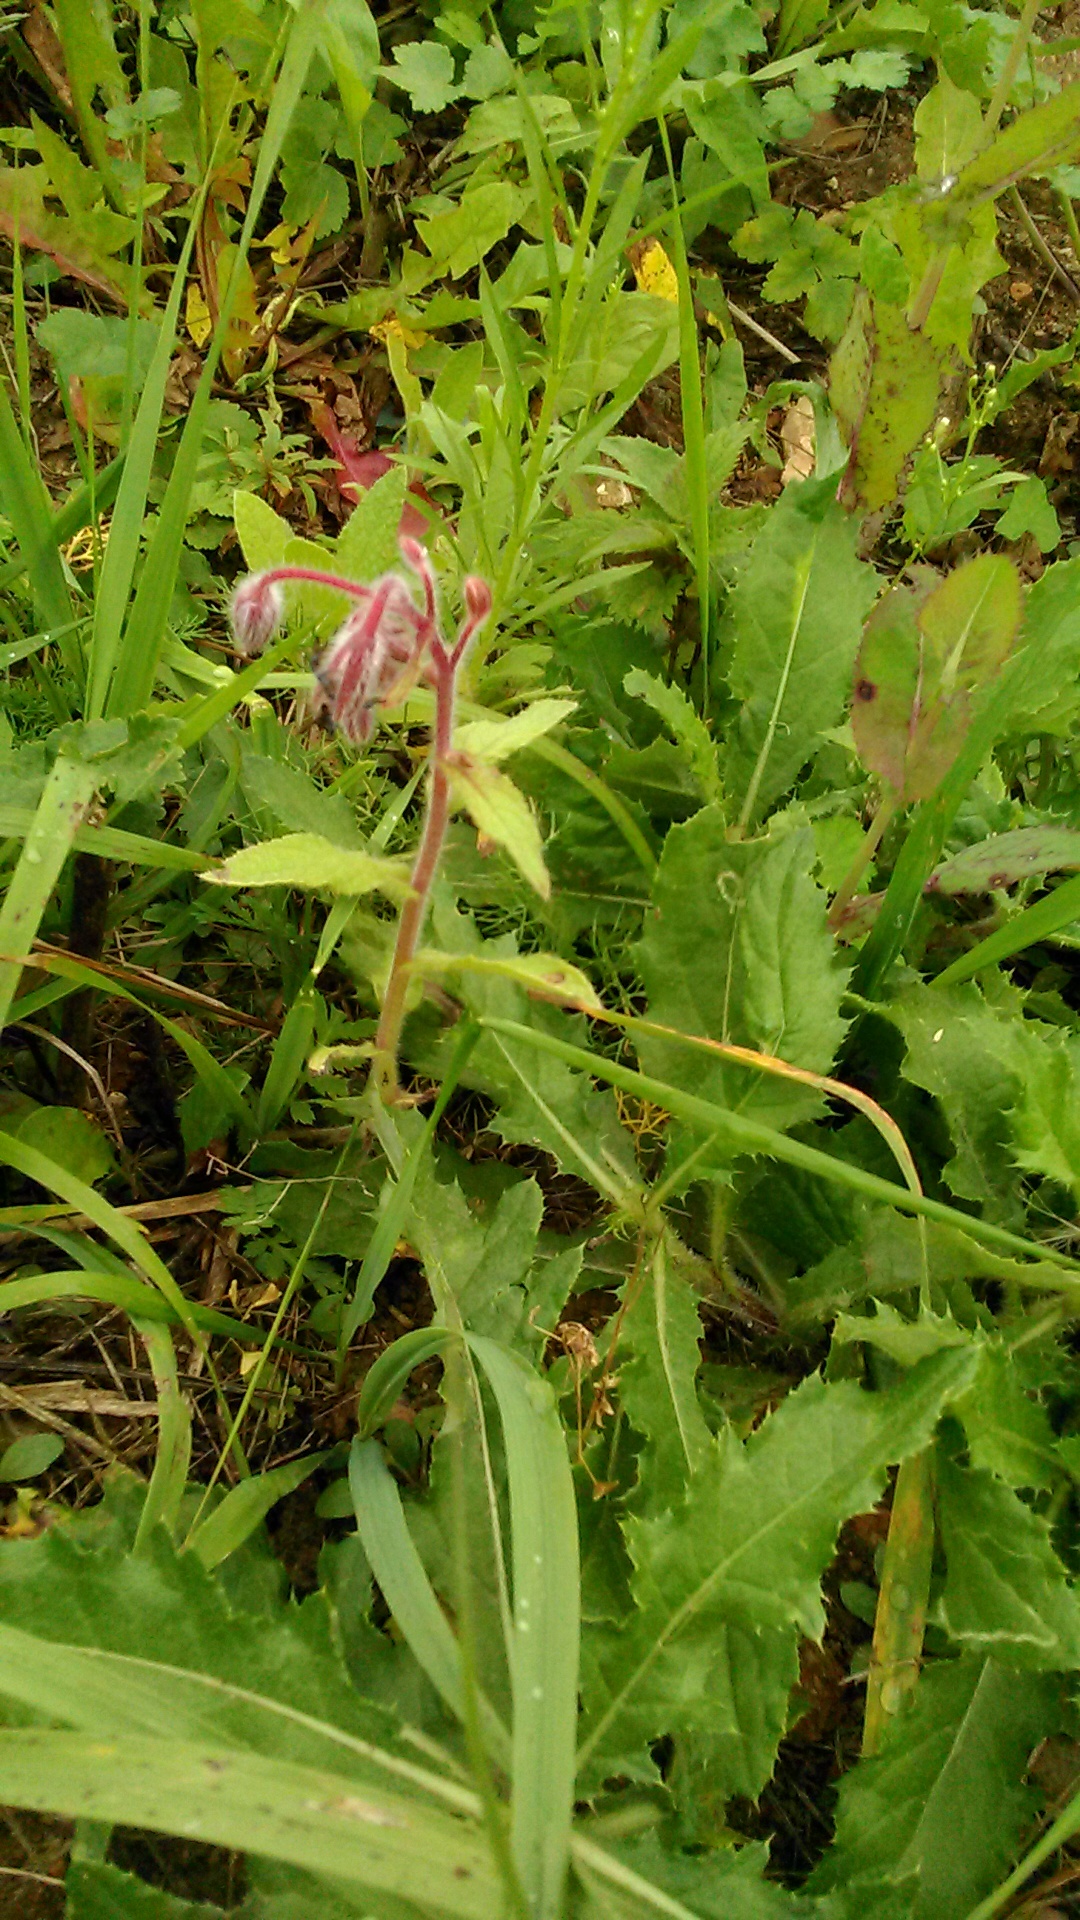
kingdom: Plantae
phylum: Tracheophyta
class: Magnoliopsida
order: Boraginales
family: Boraginaceae
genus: Borago
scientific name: Borago officinalis
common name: Borage
